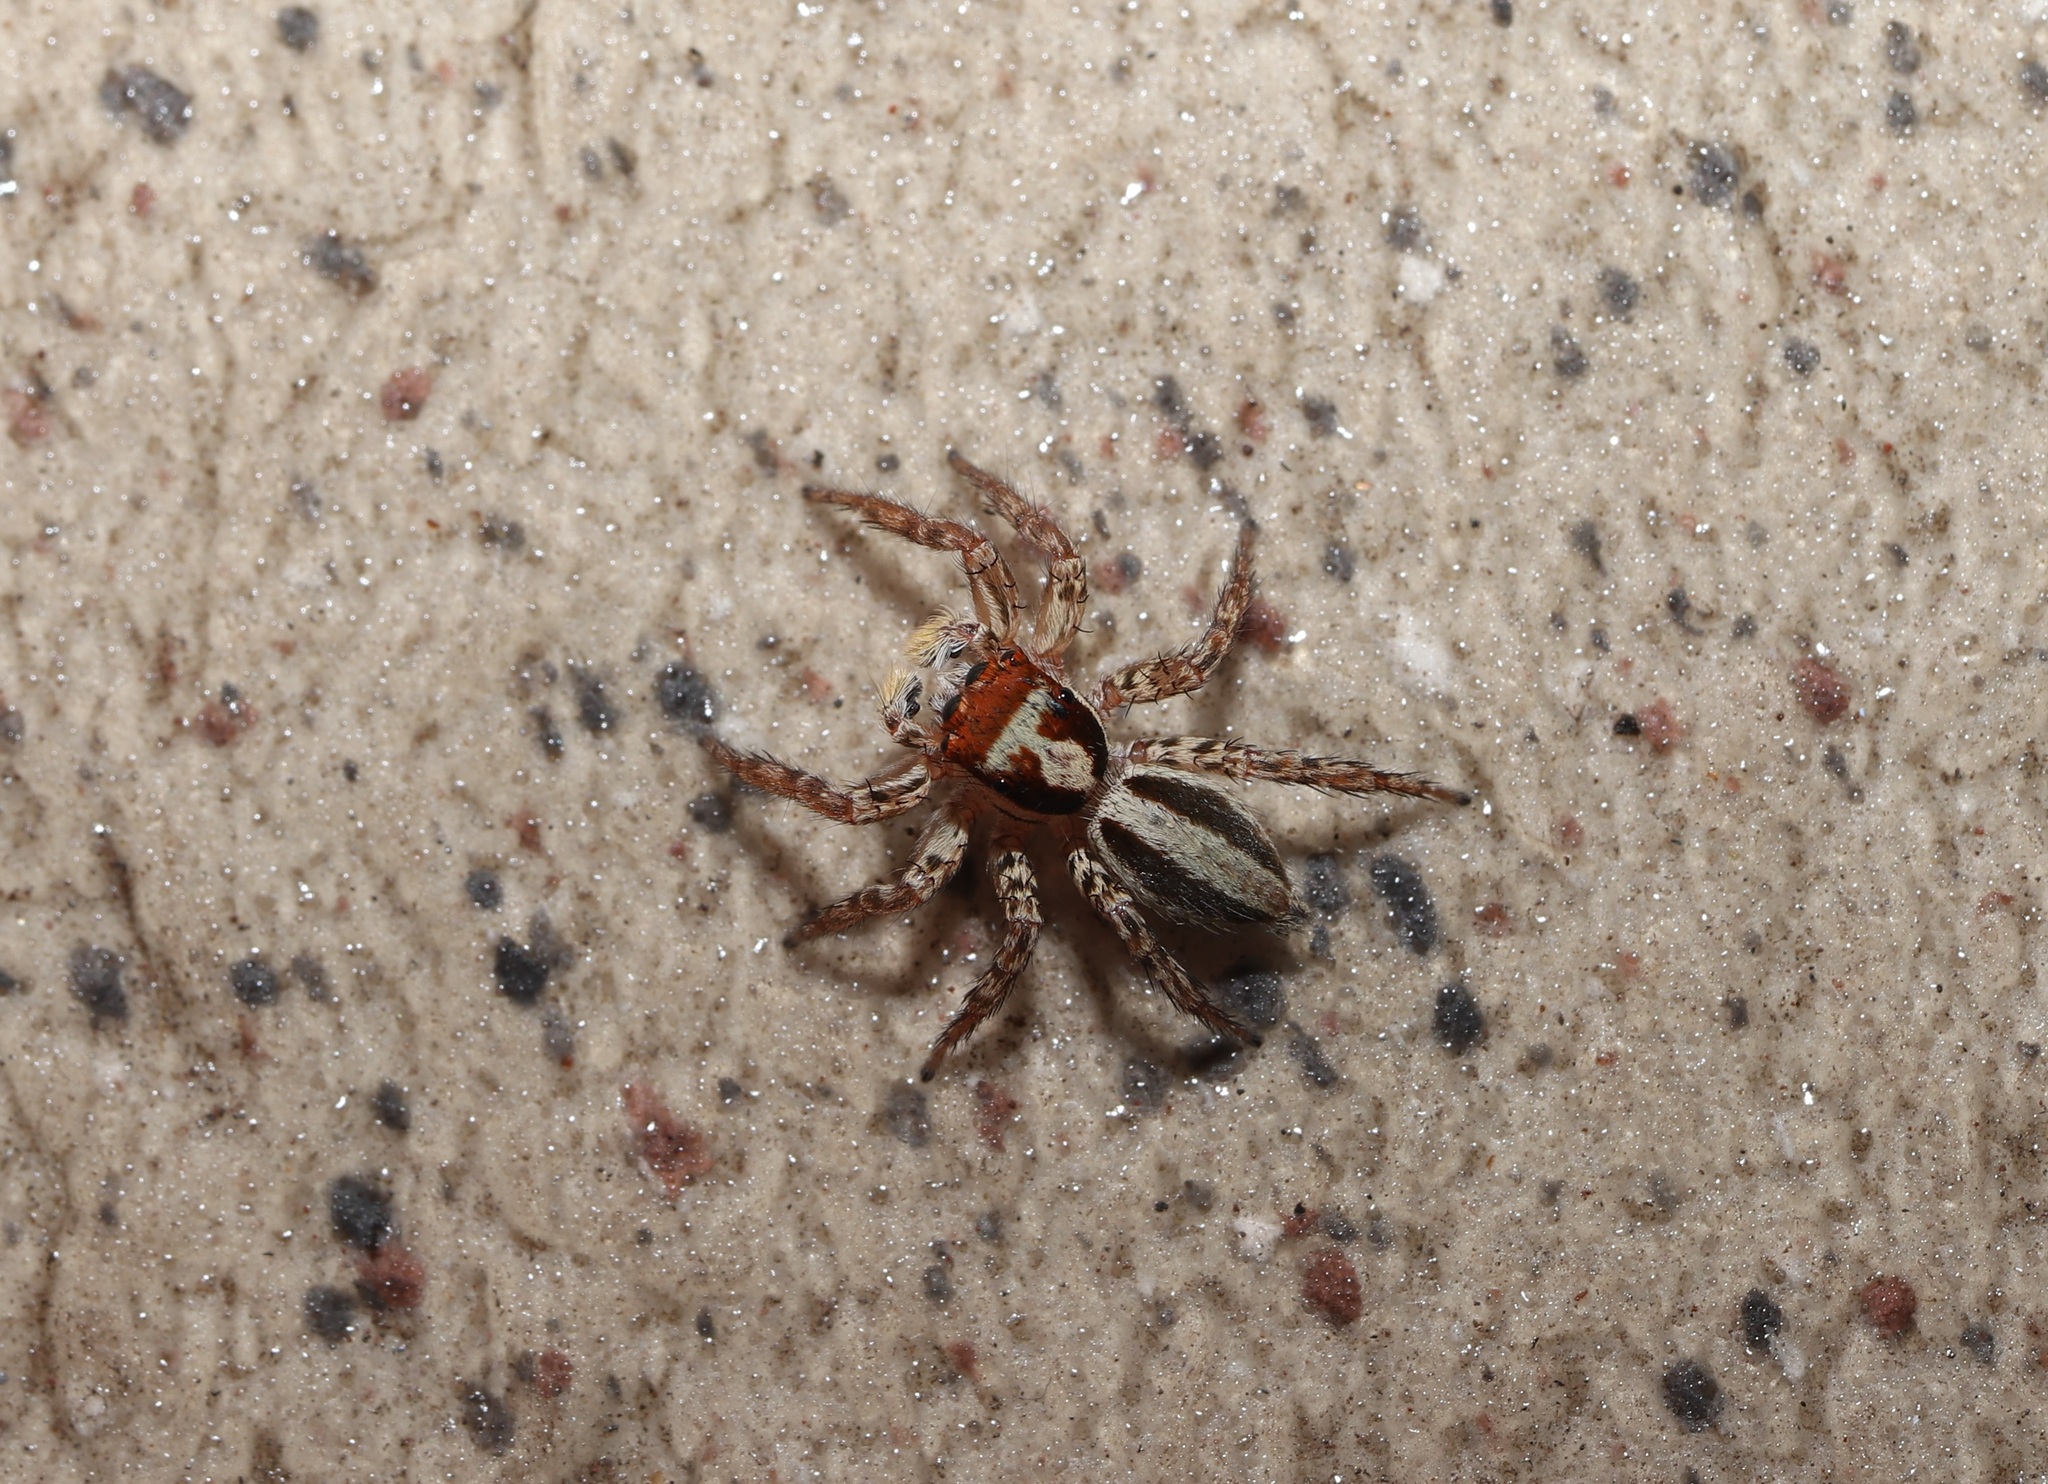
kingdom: Animalia
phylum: Arthropoda
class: Arachnida
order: Araneae
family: Salticidae
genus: Plexippus
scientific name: Plexippus setipes
